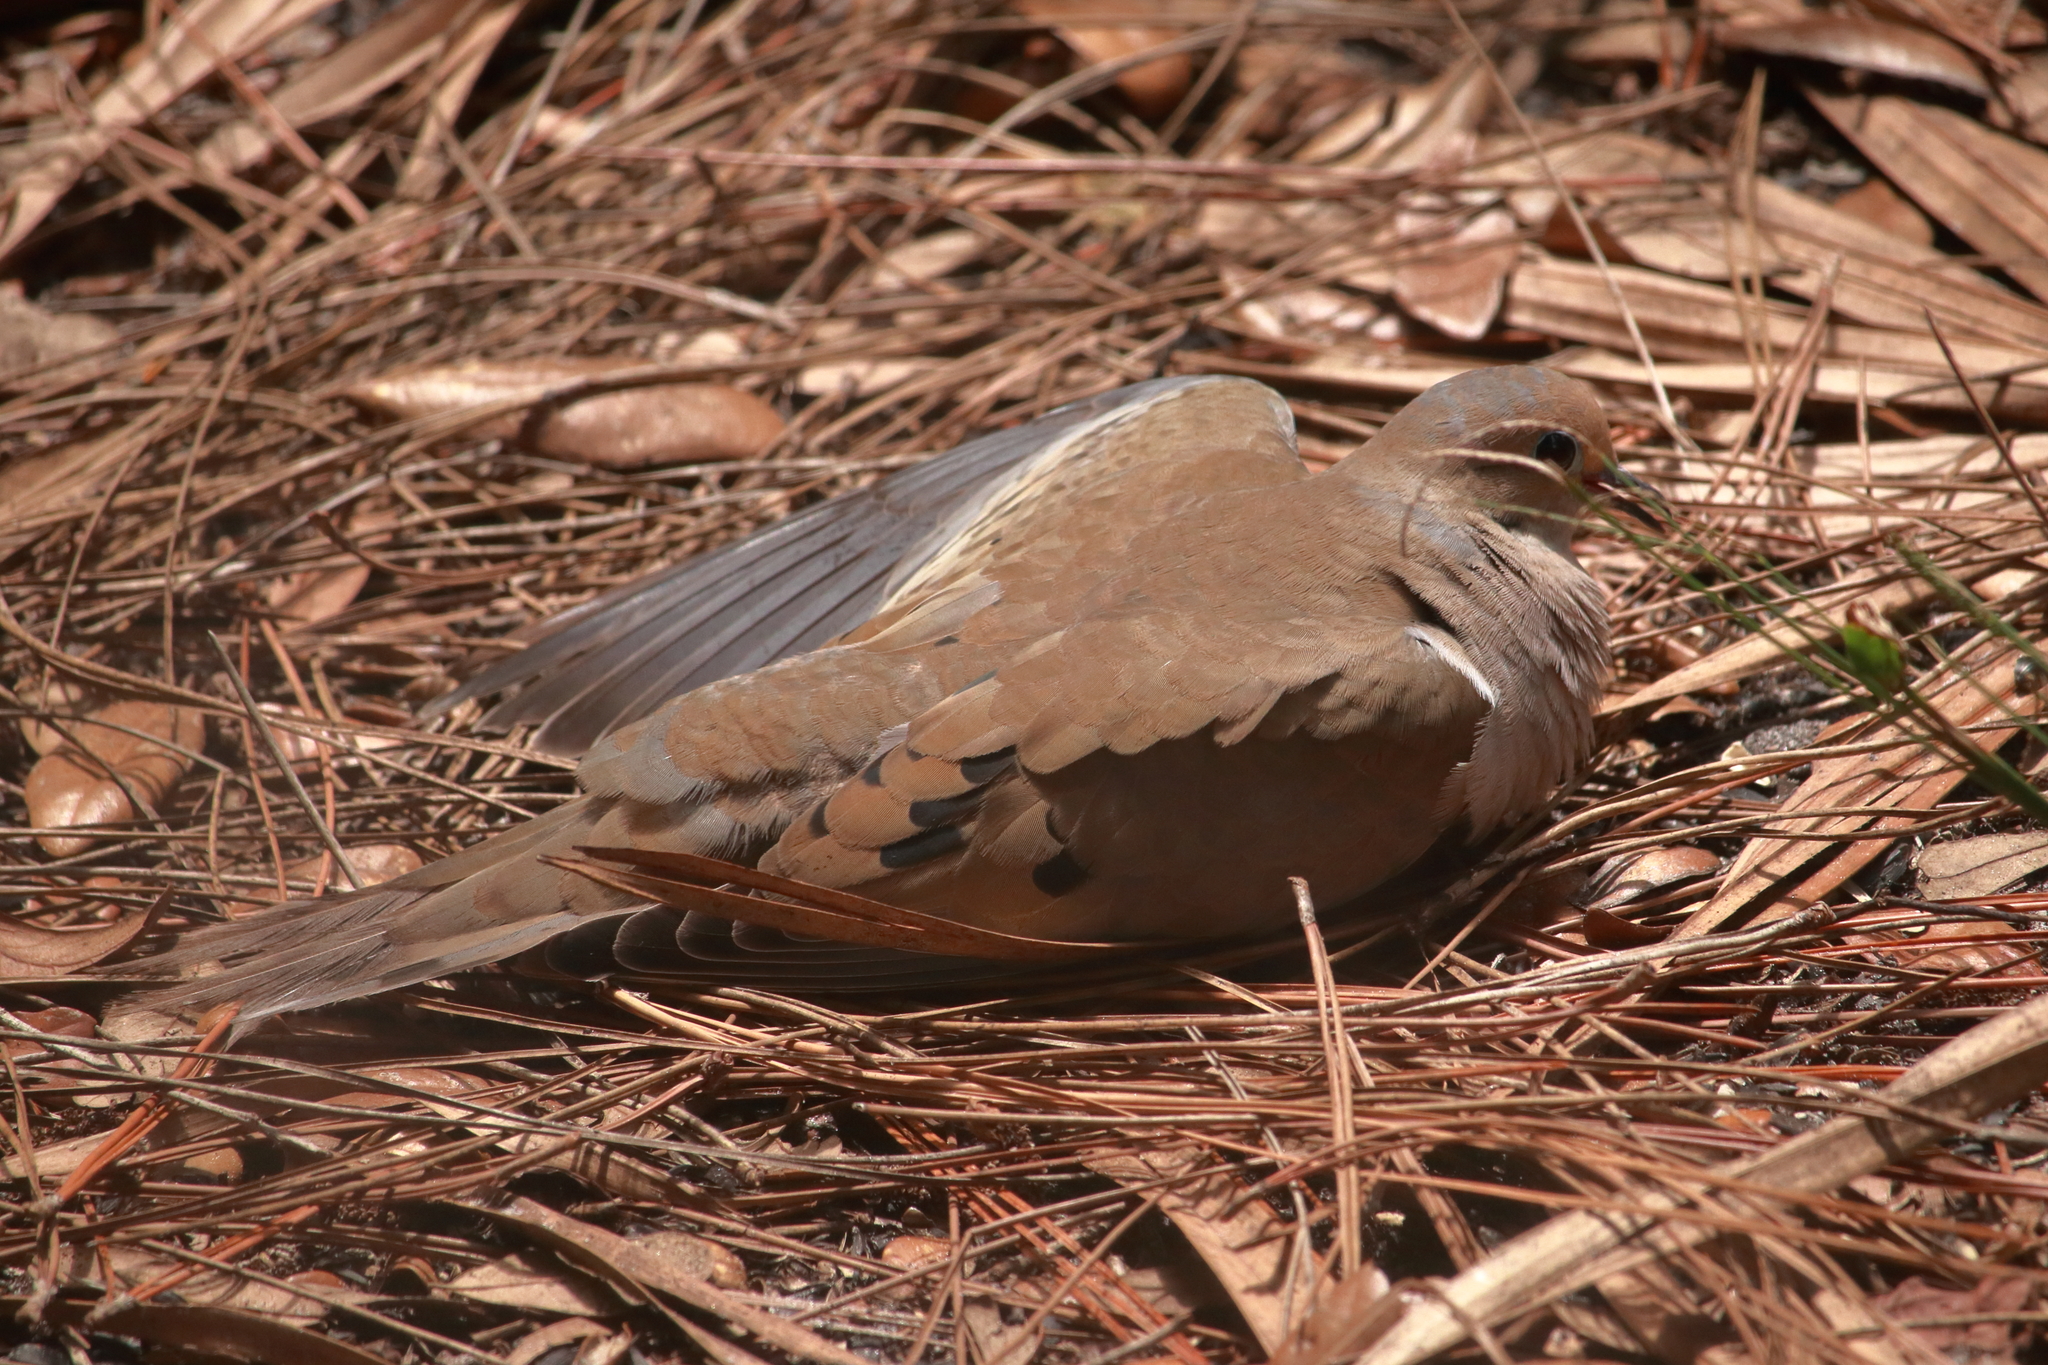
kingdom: Animalia
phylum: Chordata
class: Aves
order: Columbiformes
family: Columbidae
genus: Zenaida
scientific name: Zenaida macroura
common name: Mourning dove
